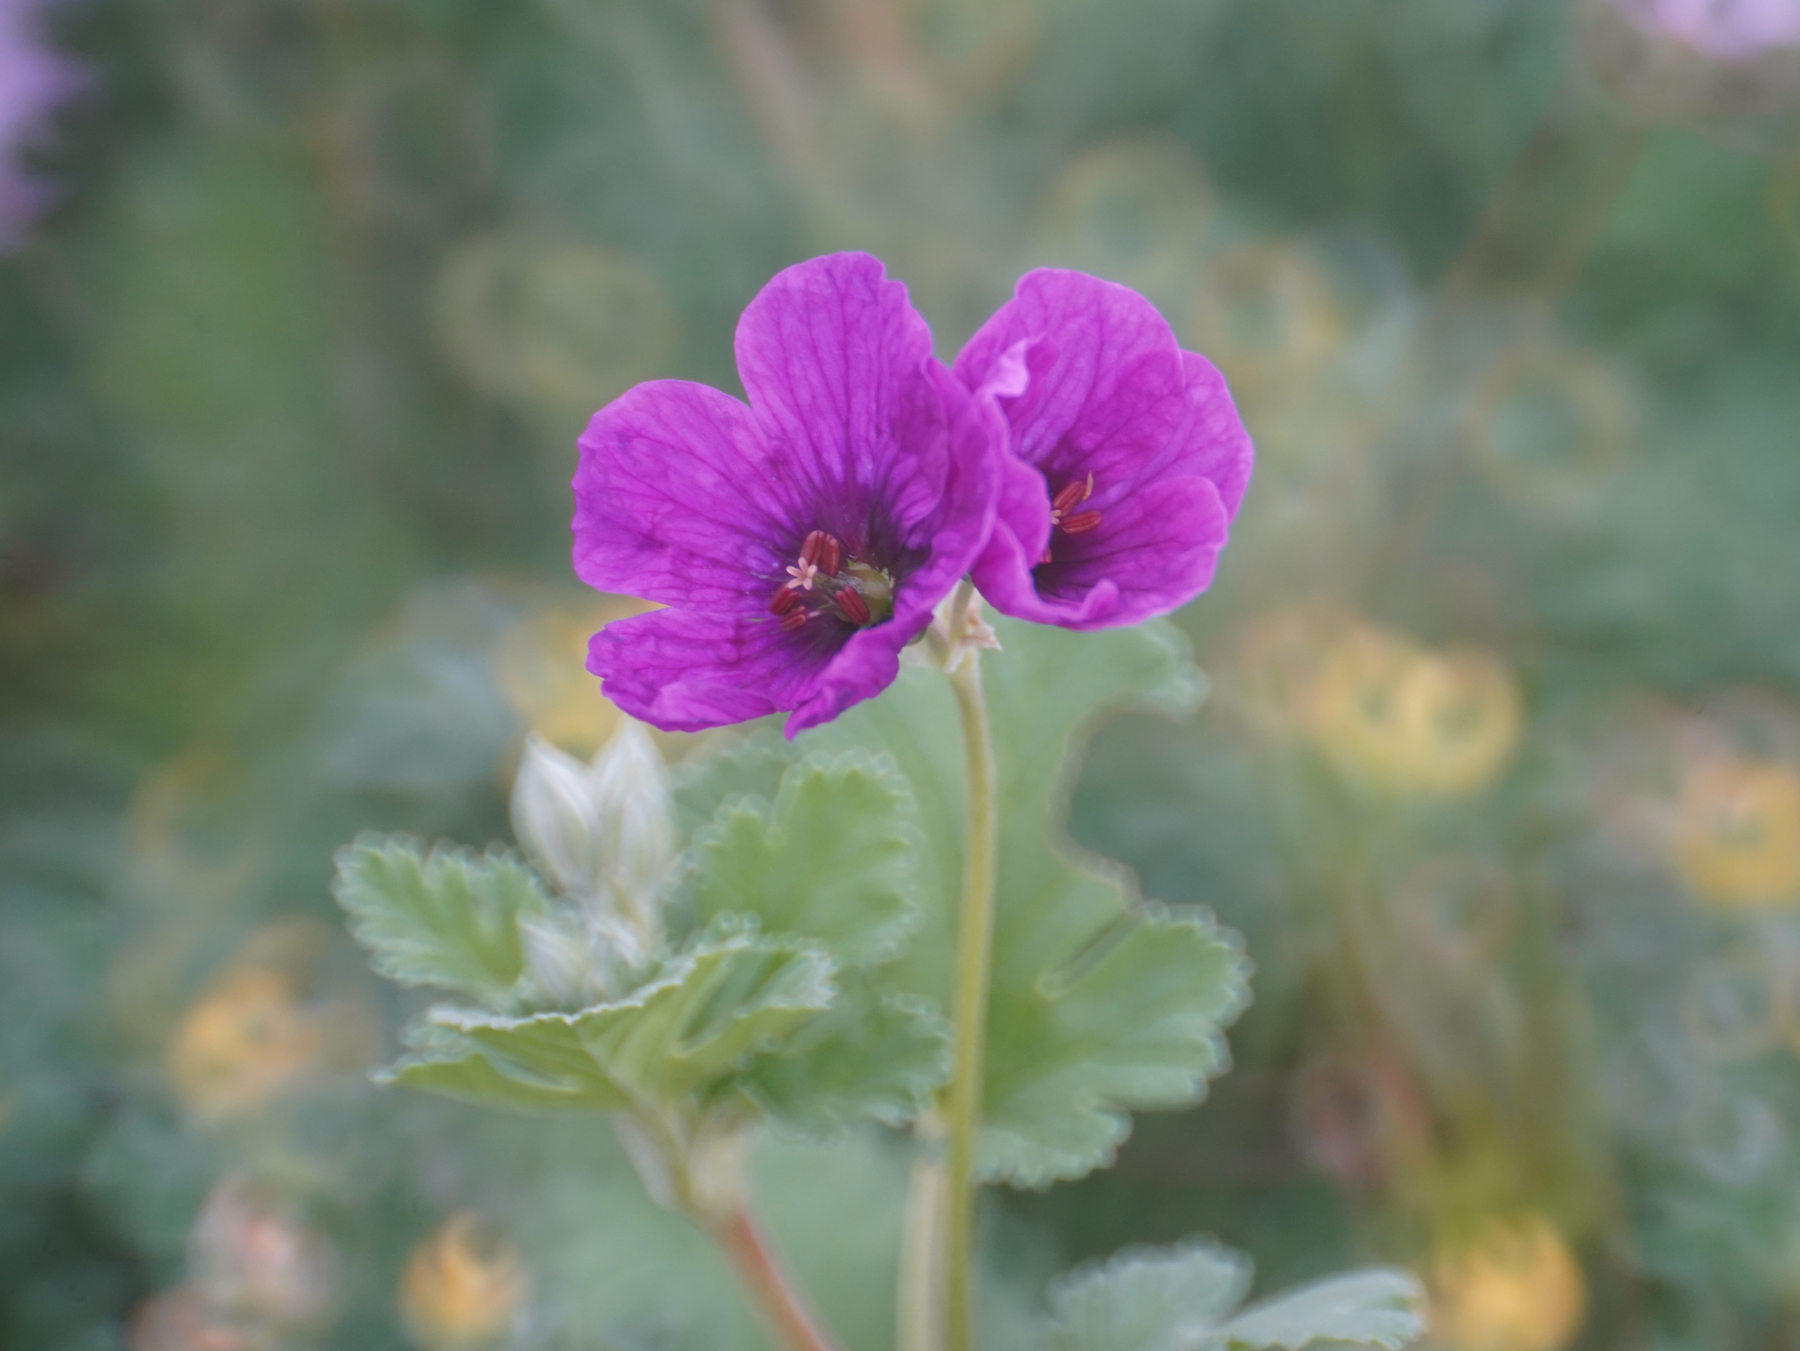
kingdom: Plantae
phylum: Tracheophyta
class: Magnoliopsida
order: Geraniales
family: Geraniaceae
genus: Erodium
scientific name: Erodium texanum
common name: Texas stork's-bill
